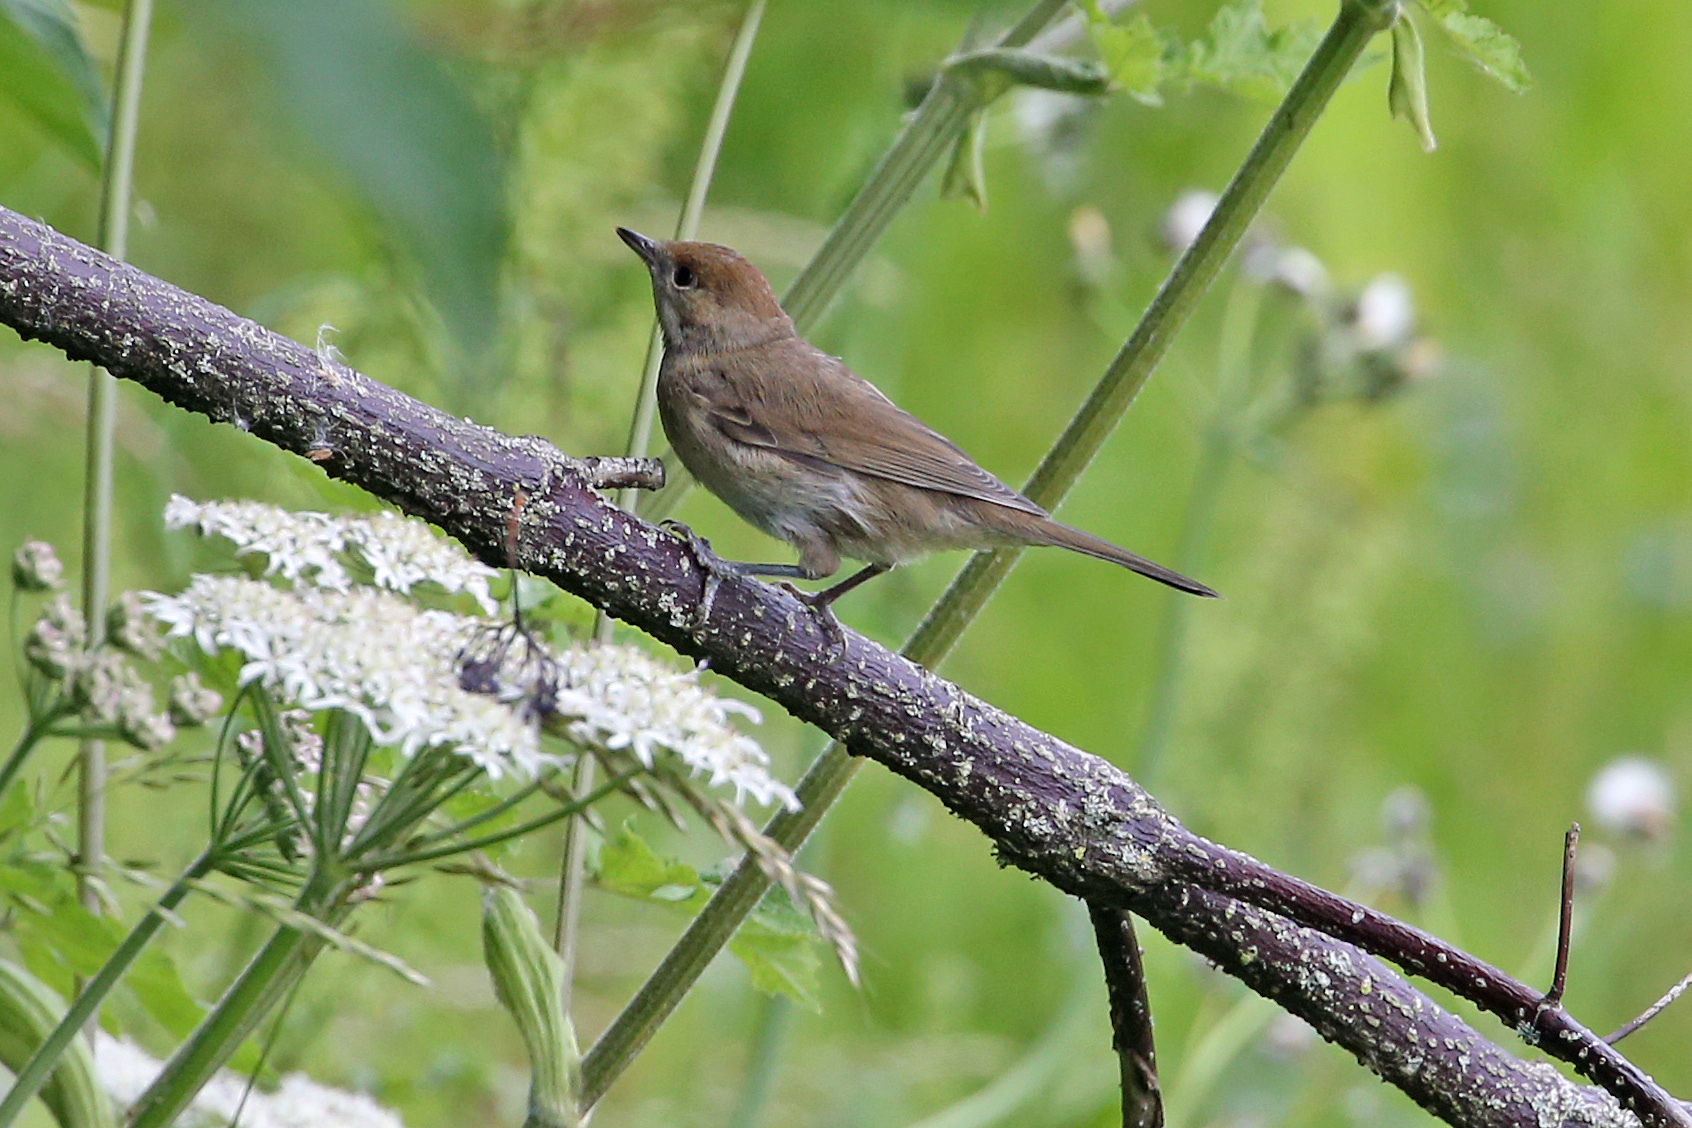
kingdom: Animalia
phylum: Chordata
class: Aves
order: Passeriformes
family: Sylviidae
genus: Sylvia
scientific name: Sylvia atricapilla
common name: Eurasian blackcap
